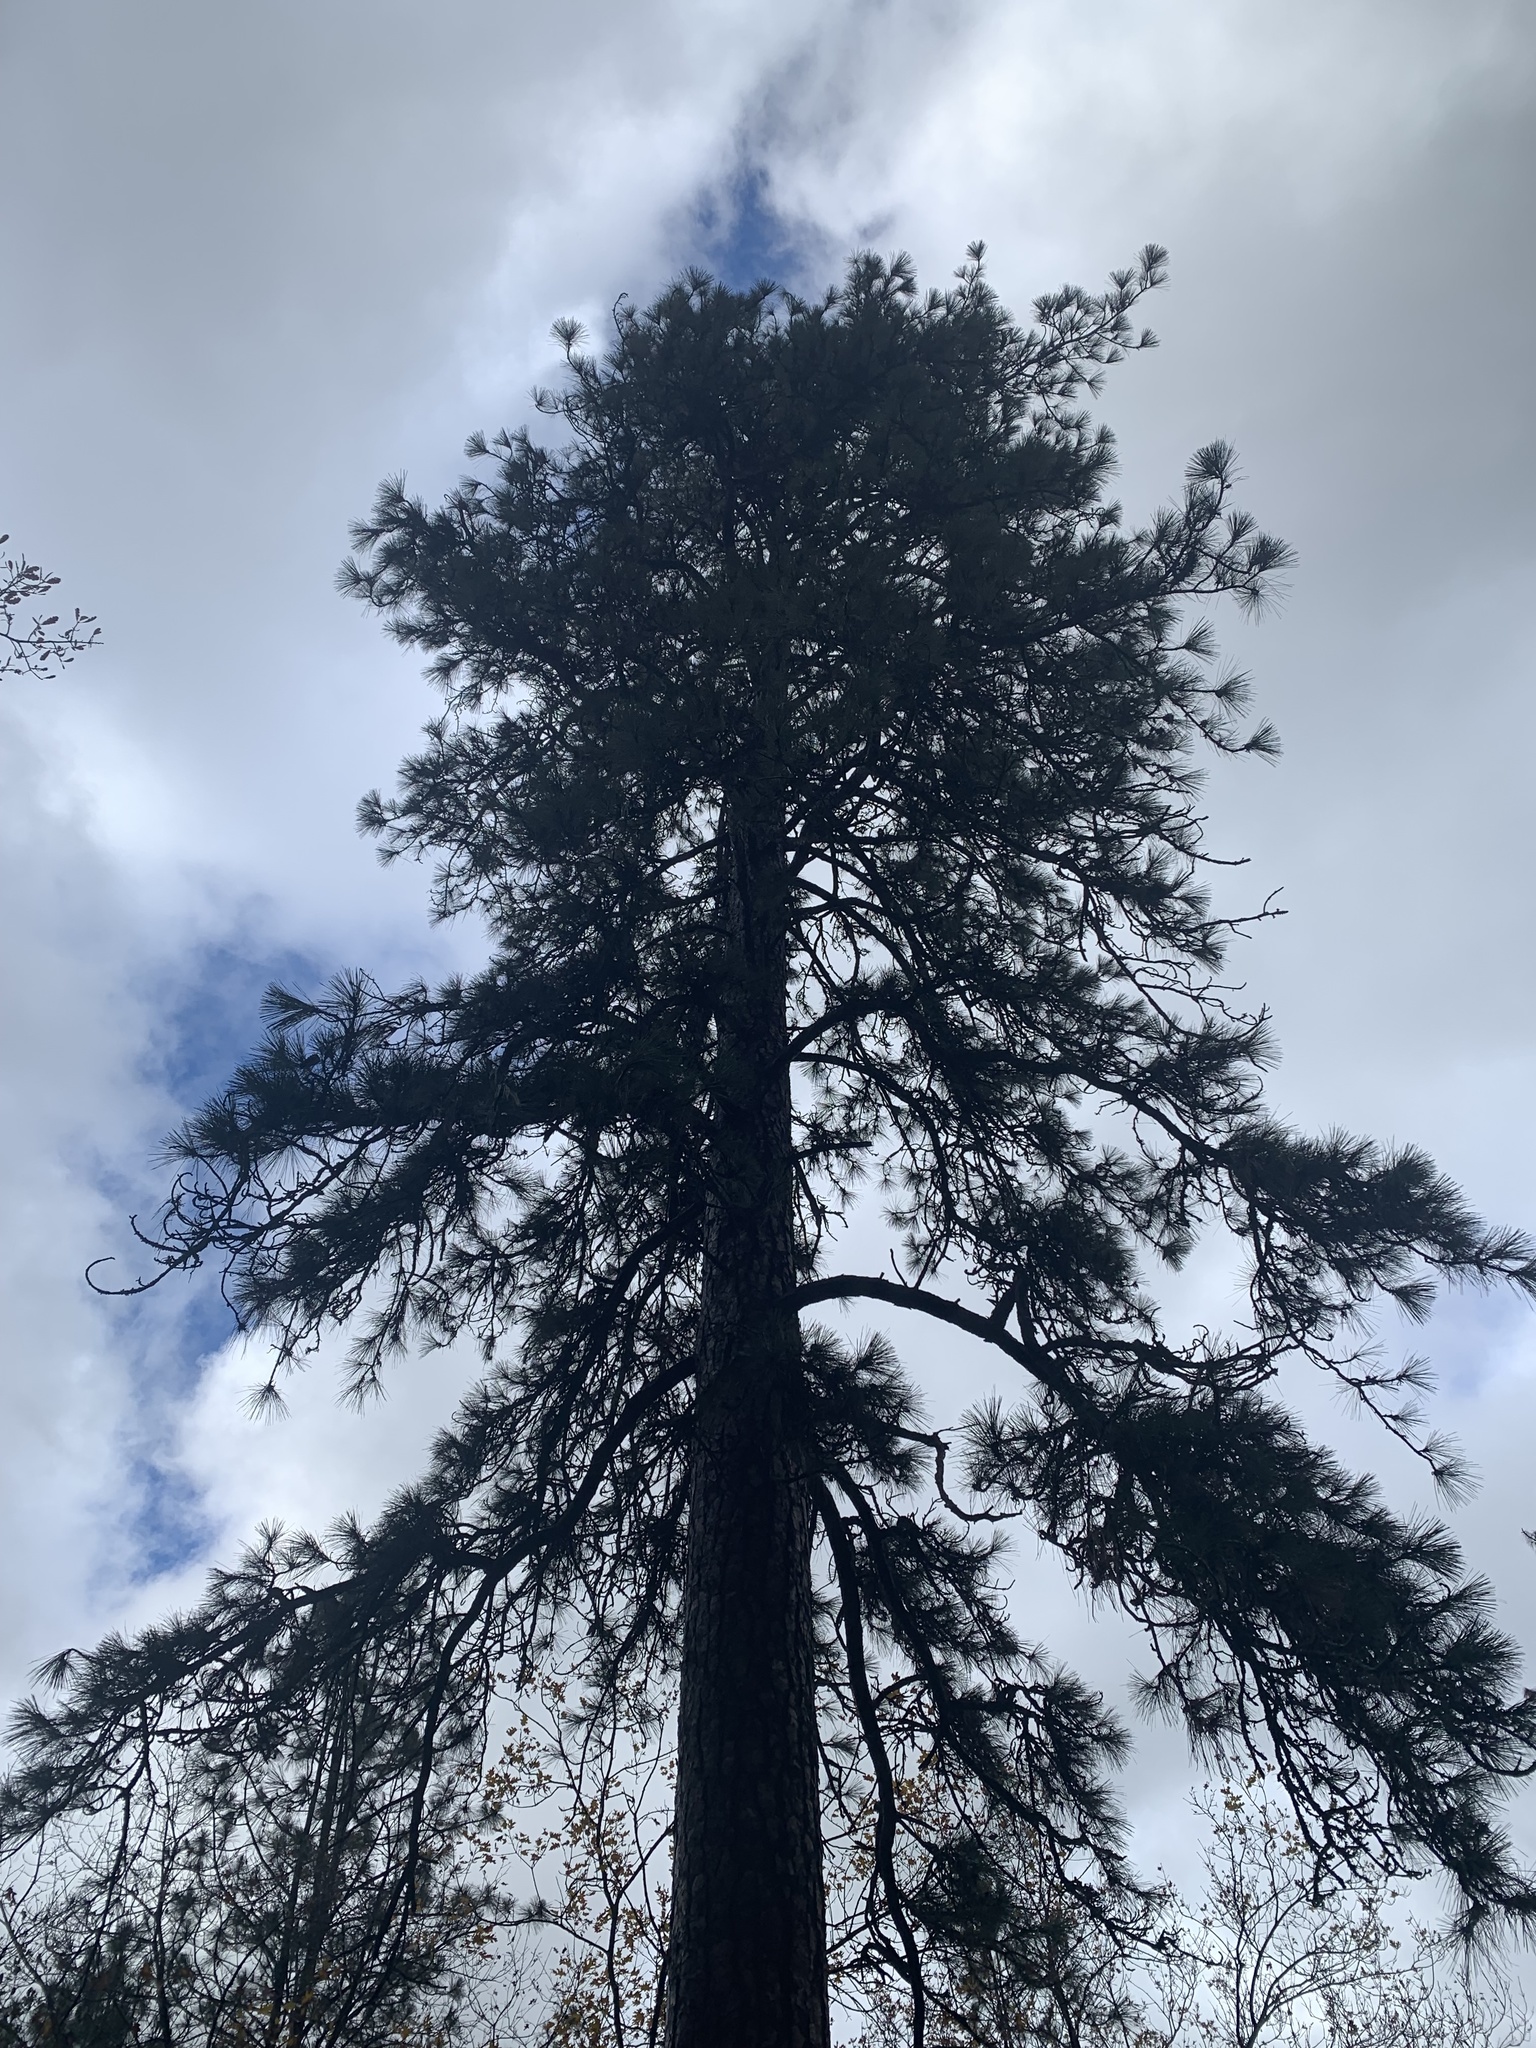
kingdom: Plantae
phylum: Tracheophyta
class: Pinopsida
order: Pinales
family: Pinaceae
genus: Pinus
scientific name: Pinus ponderosa
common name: Western yellow-pine
